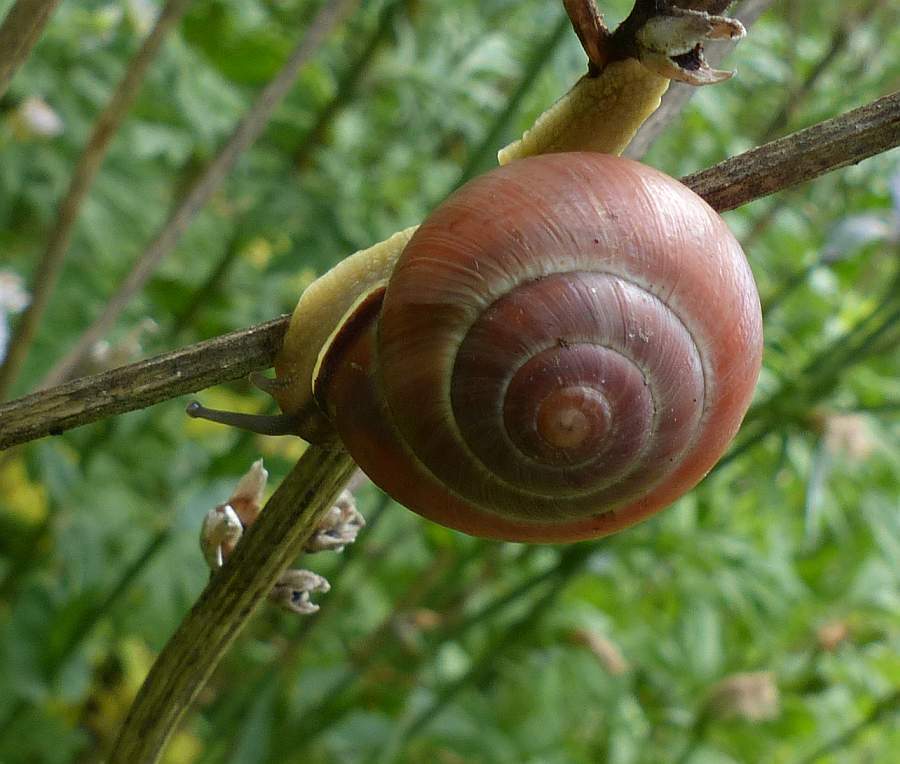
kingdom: Animalia
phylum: Mollusca
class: Gastropoda
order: Stylommatophora
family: Helicidae
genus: Cepaea
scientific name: Cepaea nemoralis
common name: Grovesnail
